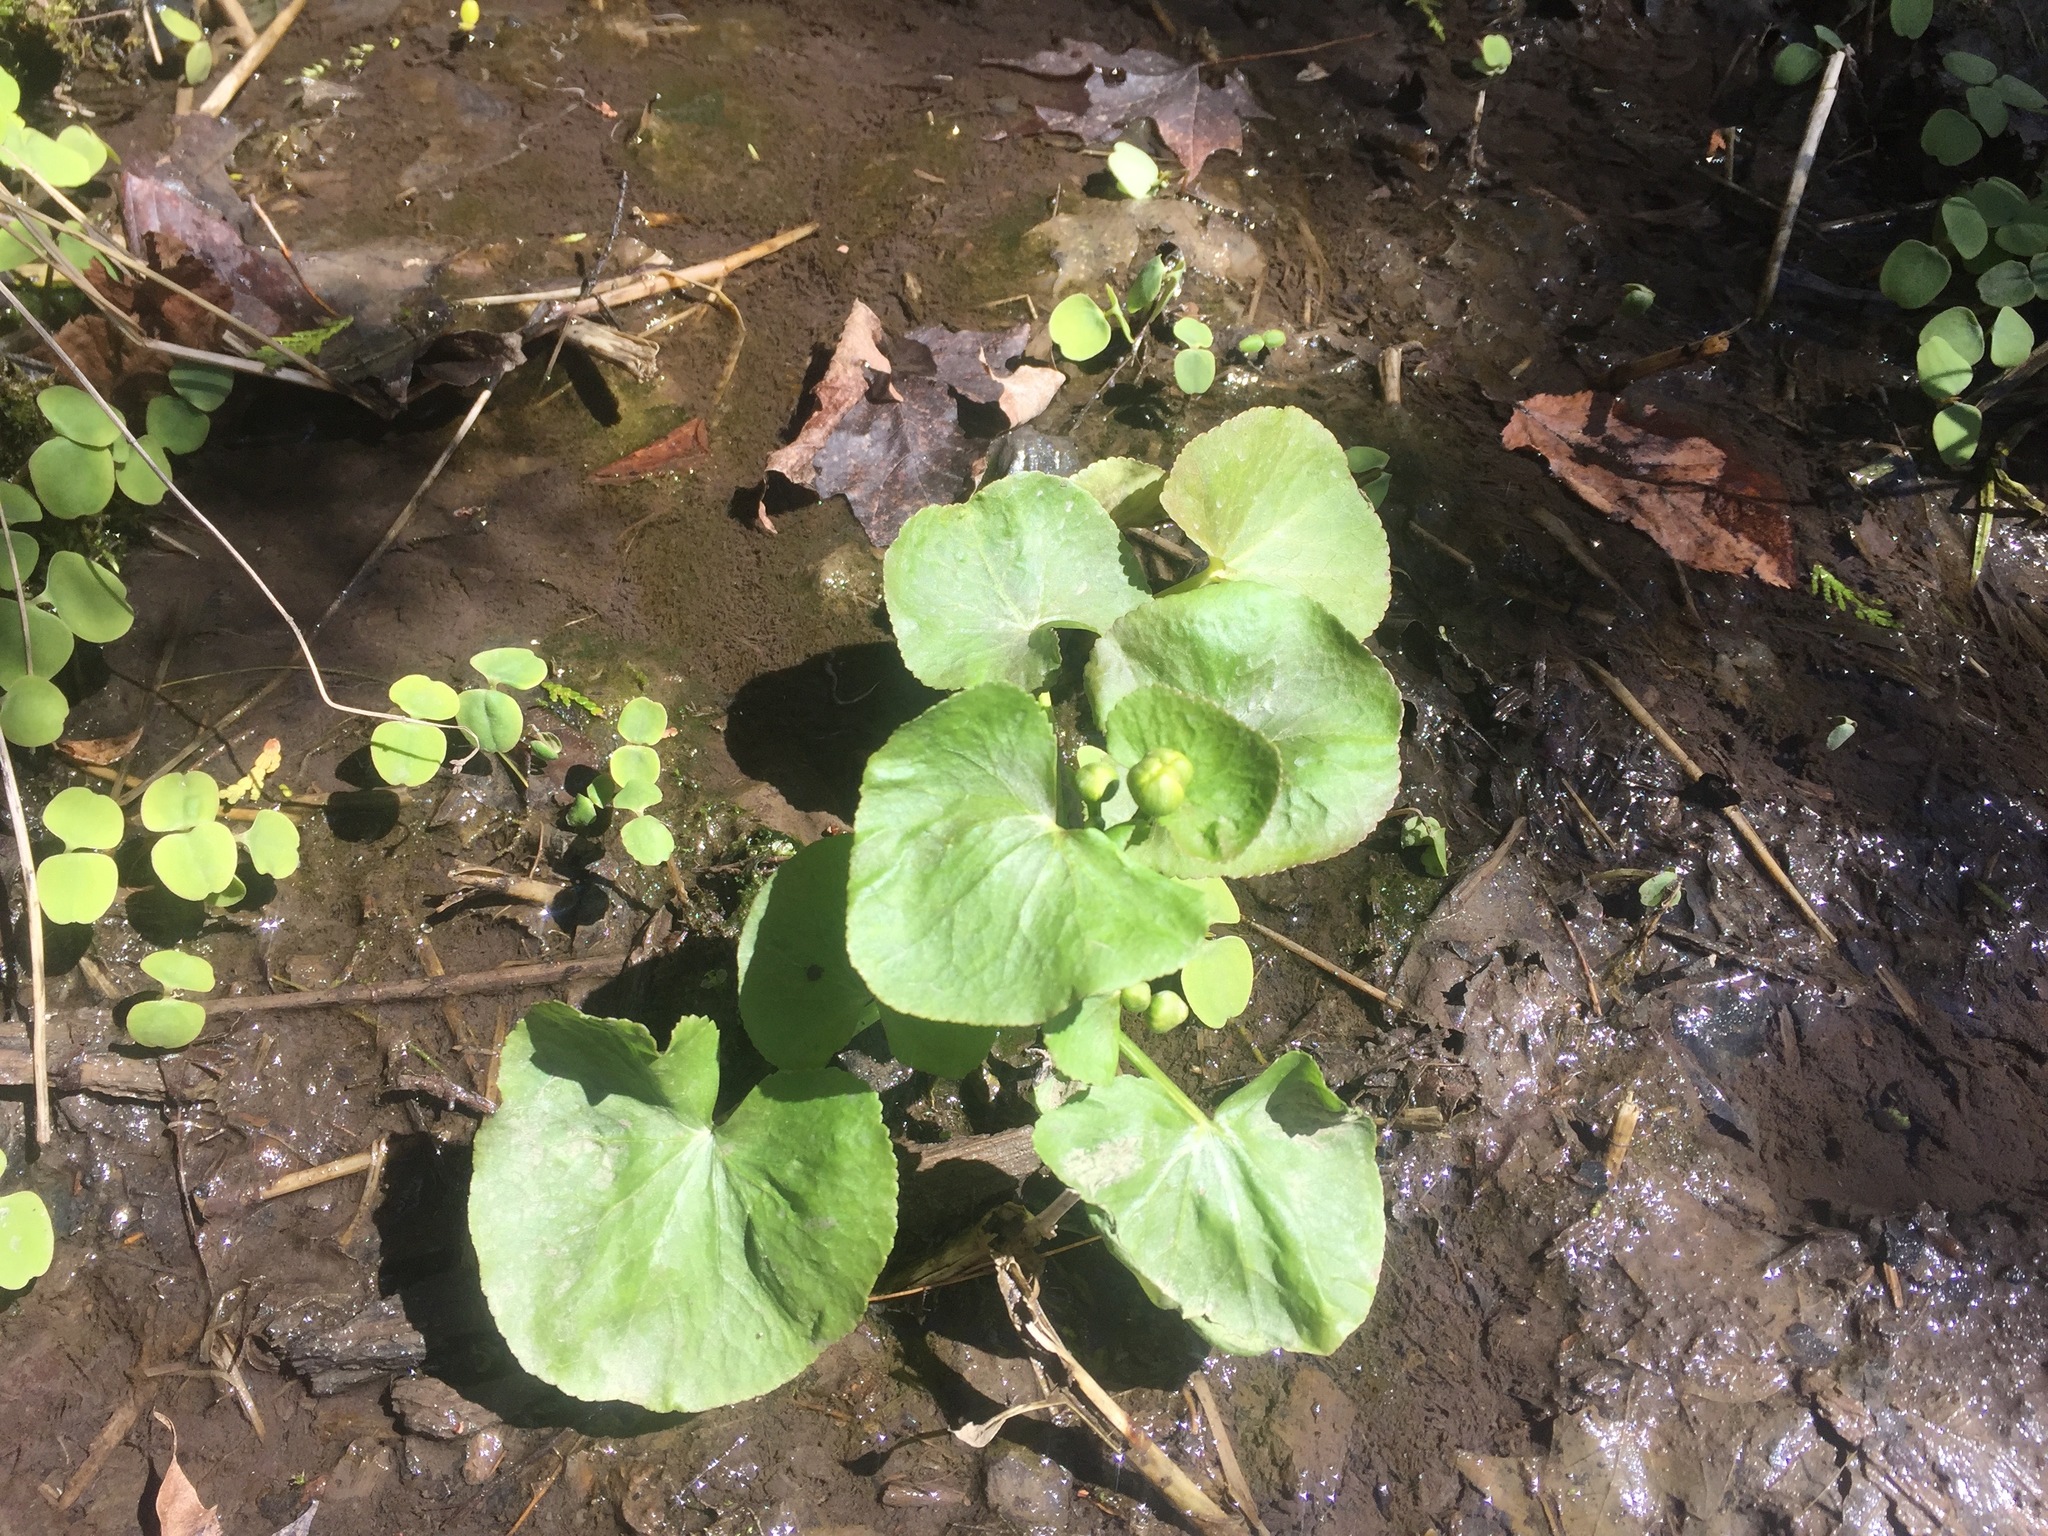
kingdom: Plantae
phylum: Tracheophyta
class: Magnoliopsida
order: Ranunculales
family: Ranunculaceae
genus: Caltha
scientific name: Caltha palustris
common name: Marsh marigold
